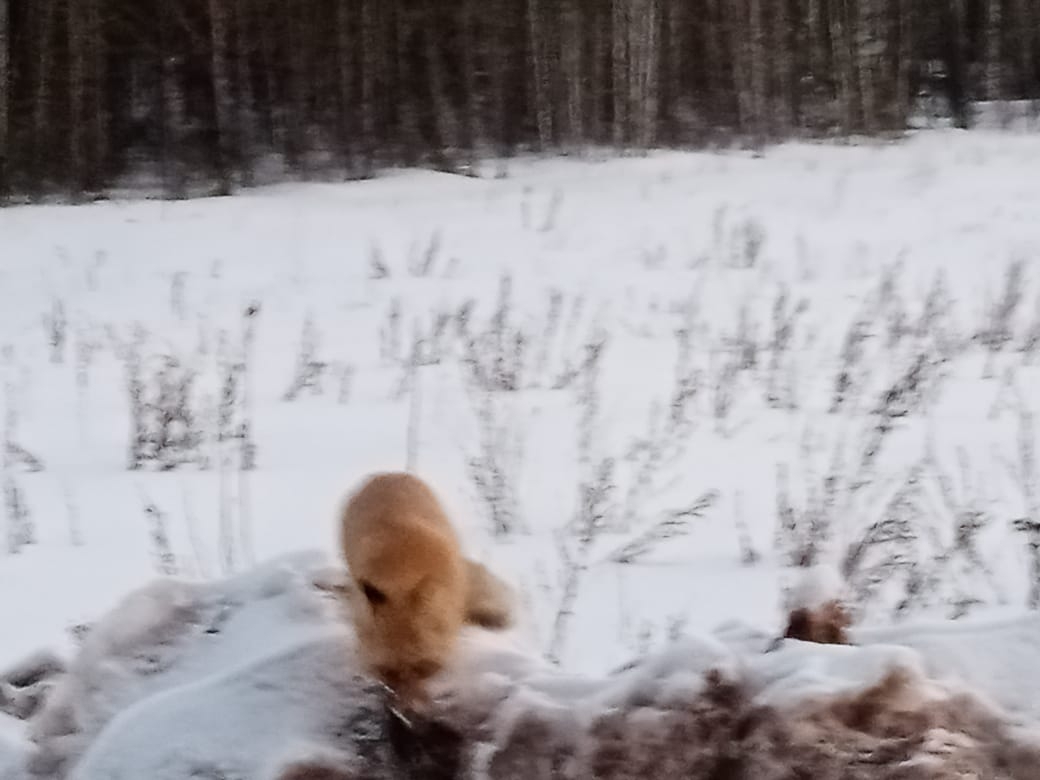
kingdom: Animalia
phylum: Chordata
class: Mammalia
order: Carnivora
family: Canidae
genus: Vulpes
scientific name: Vulpes vulpes
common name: Red fox
